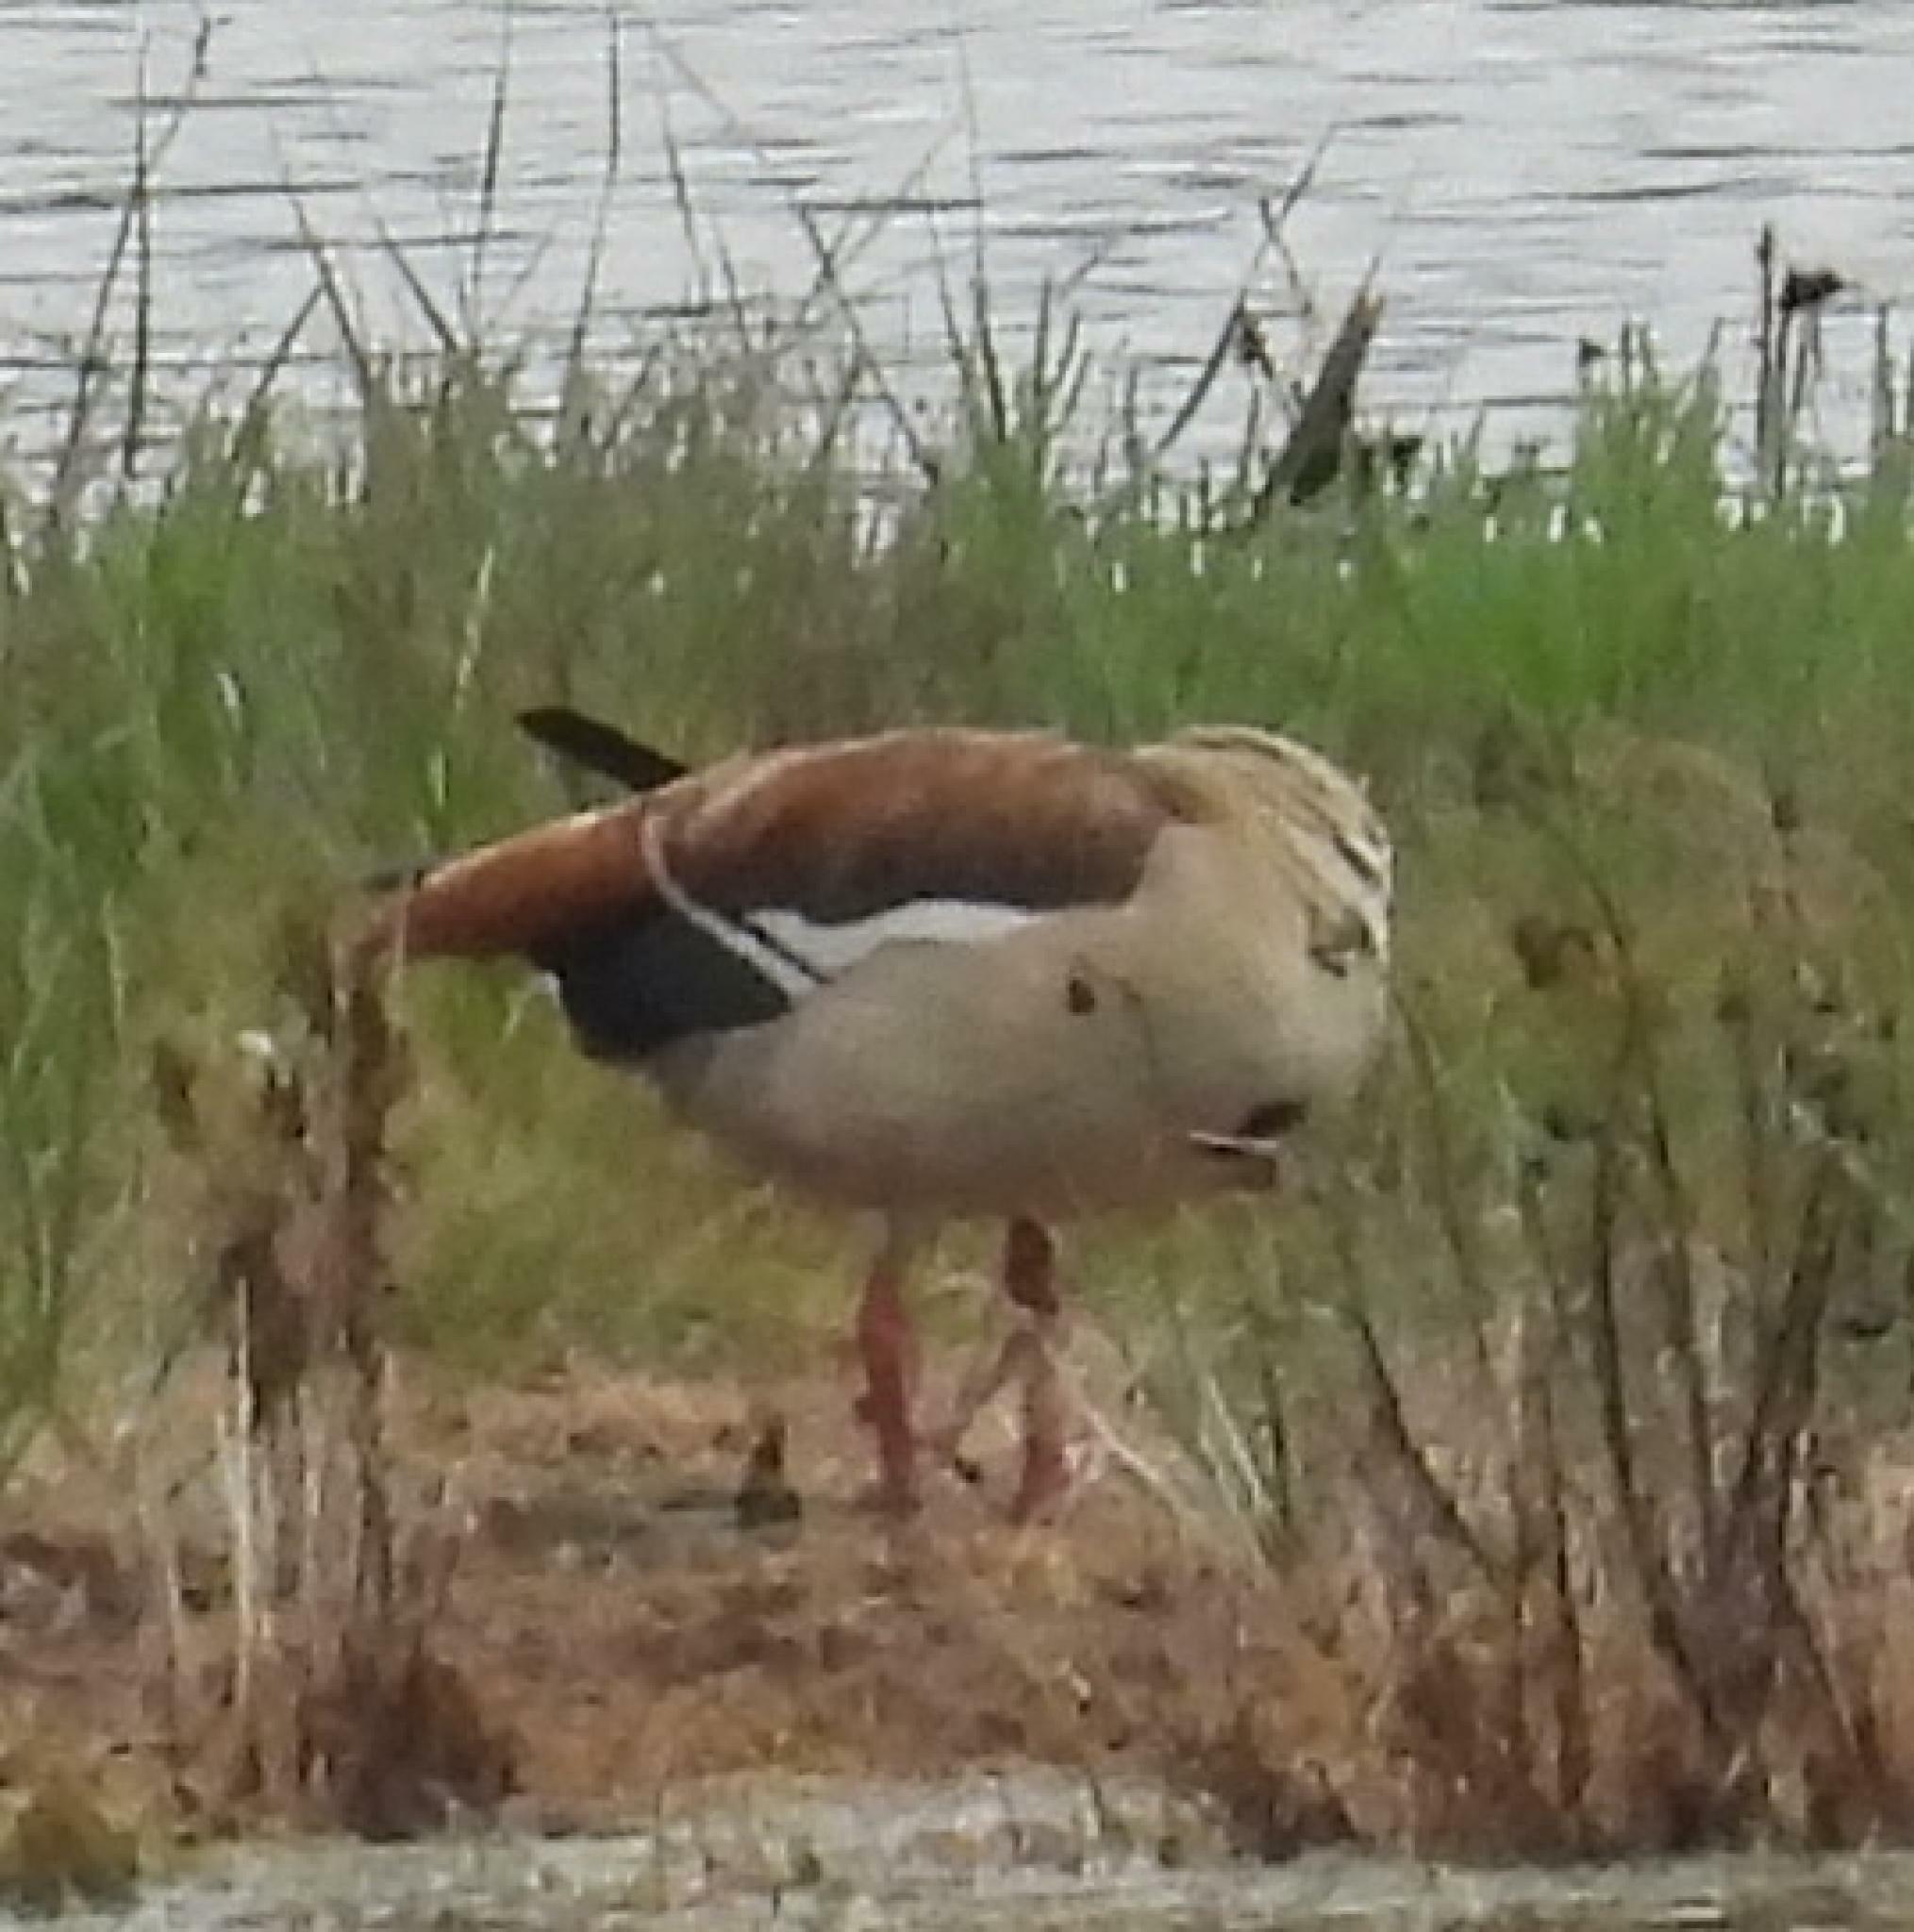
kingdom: Animalia
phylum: Chordata
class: Aves
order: Anseriformes
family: Anatidae
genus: Alopochen
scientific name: Alopochen aegyptiaca
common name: Egyptian goose
